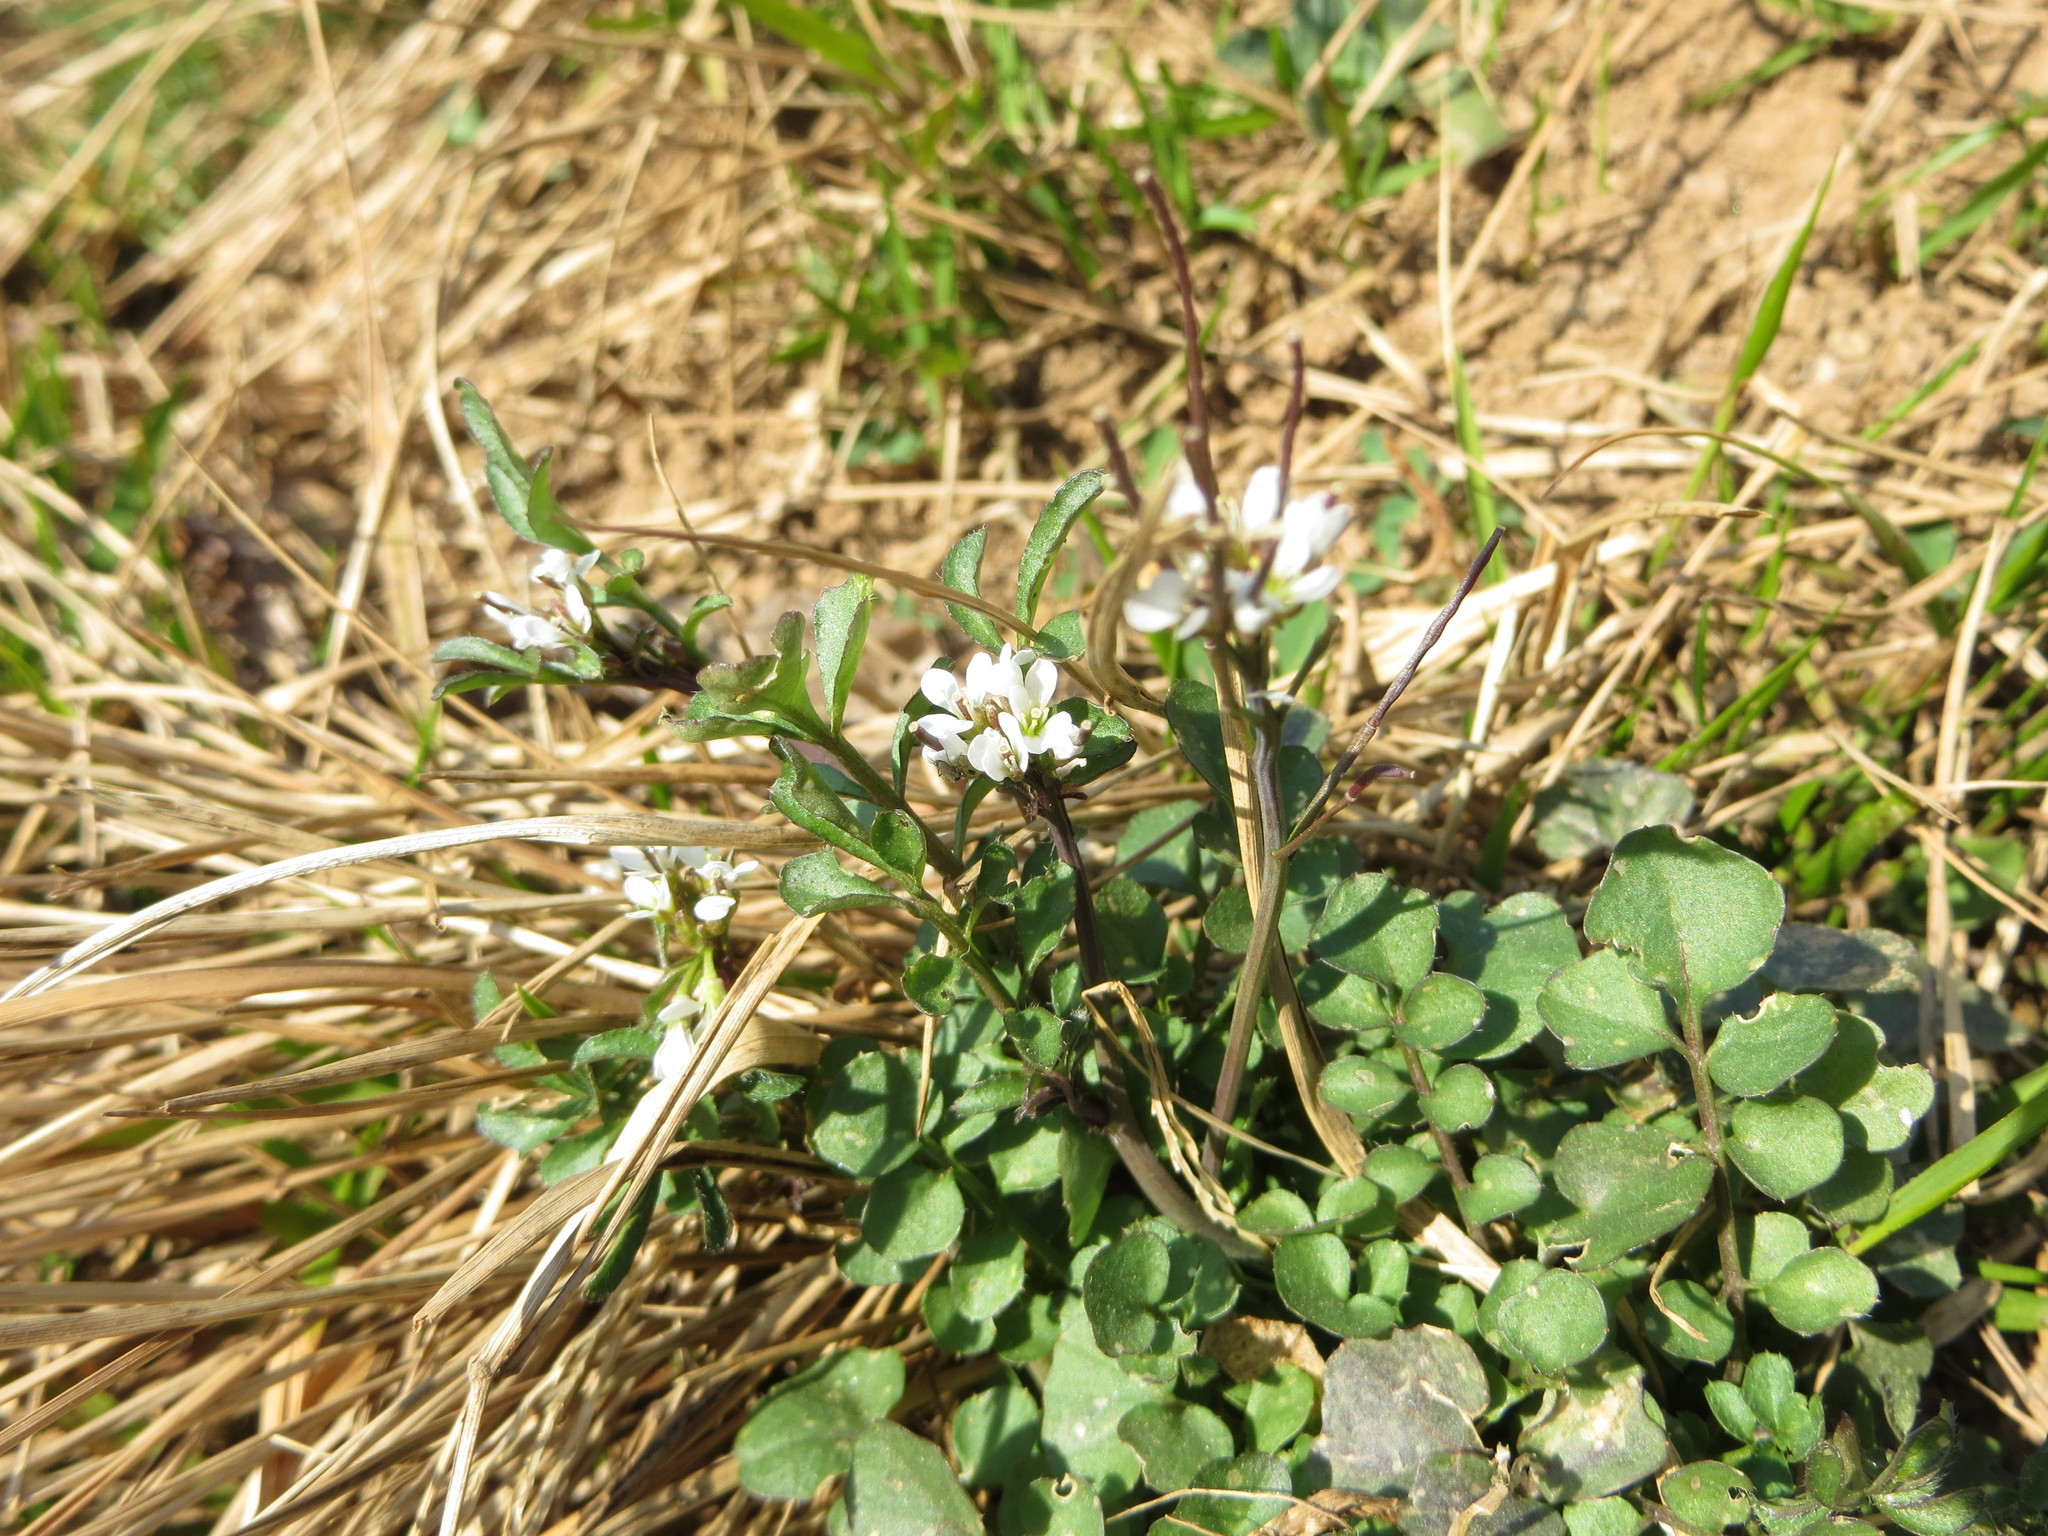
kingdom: Plantae
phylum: Tracheophyta
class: Magnoliopsida
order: Brassicales
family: Brassicaceae
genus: Cardamine
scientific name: Cardamine hirsuta
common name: Hairy bittercress
